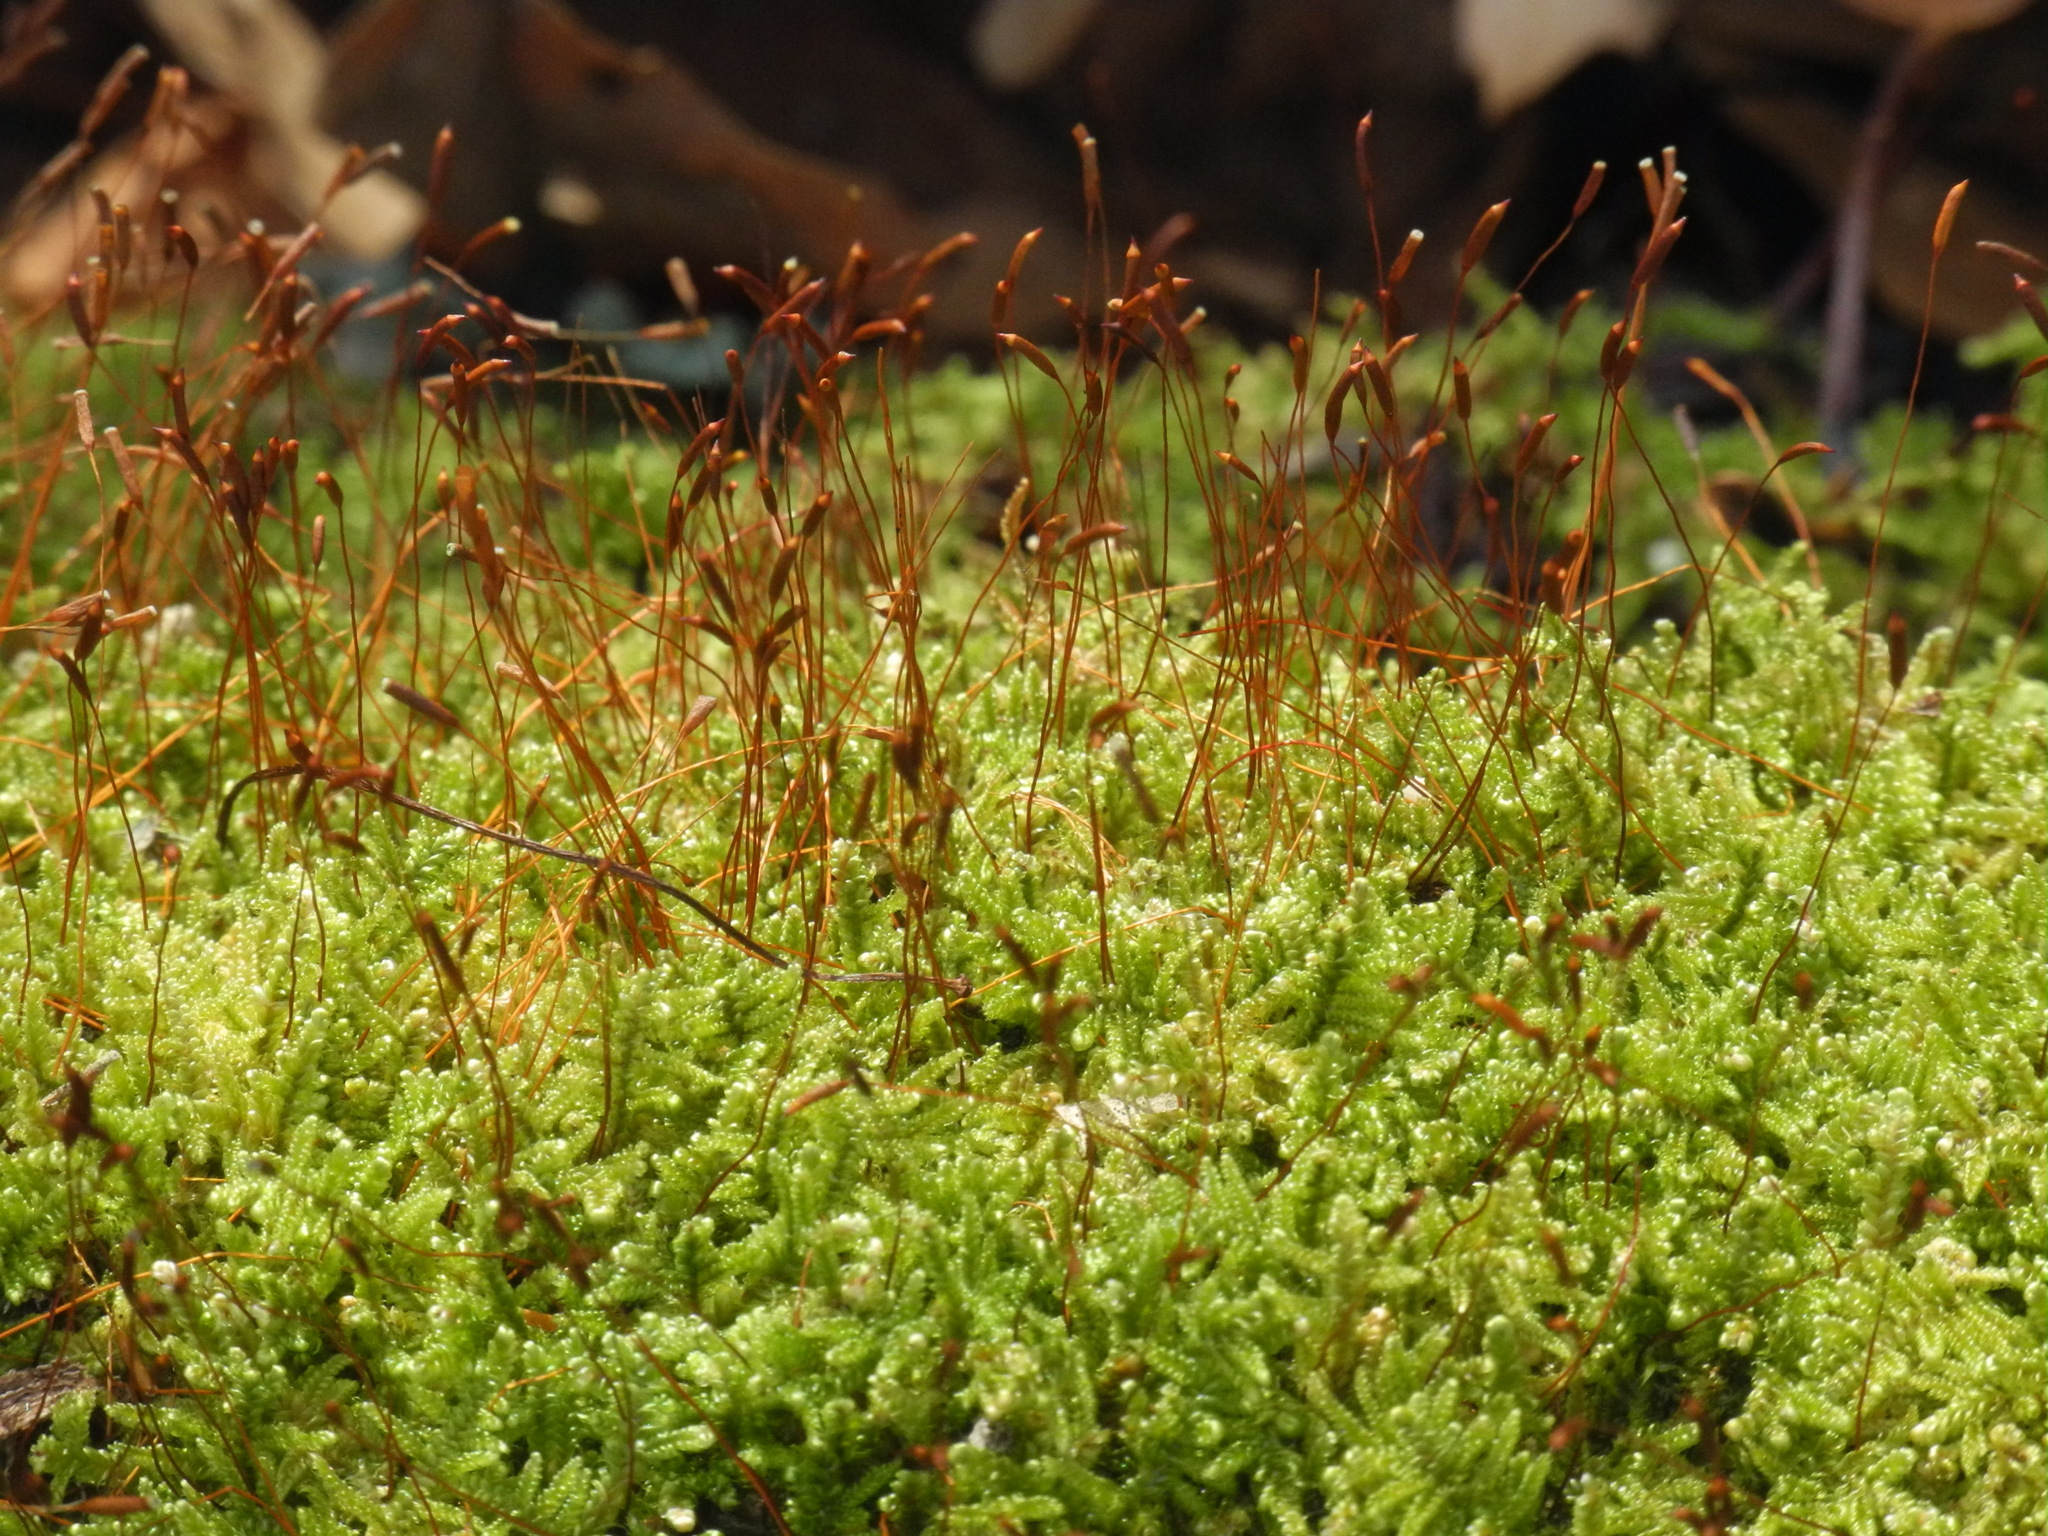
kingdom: Plantae
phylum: Bryophyta
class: Bryopsida
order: Hypnales
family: Callicladiaceae
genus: Callicladium
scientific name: Callicladium imponens
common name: Brocade moss
